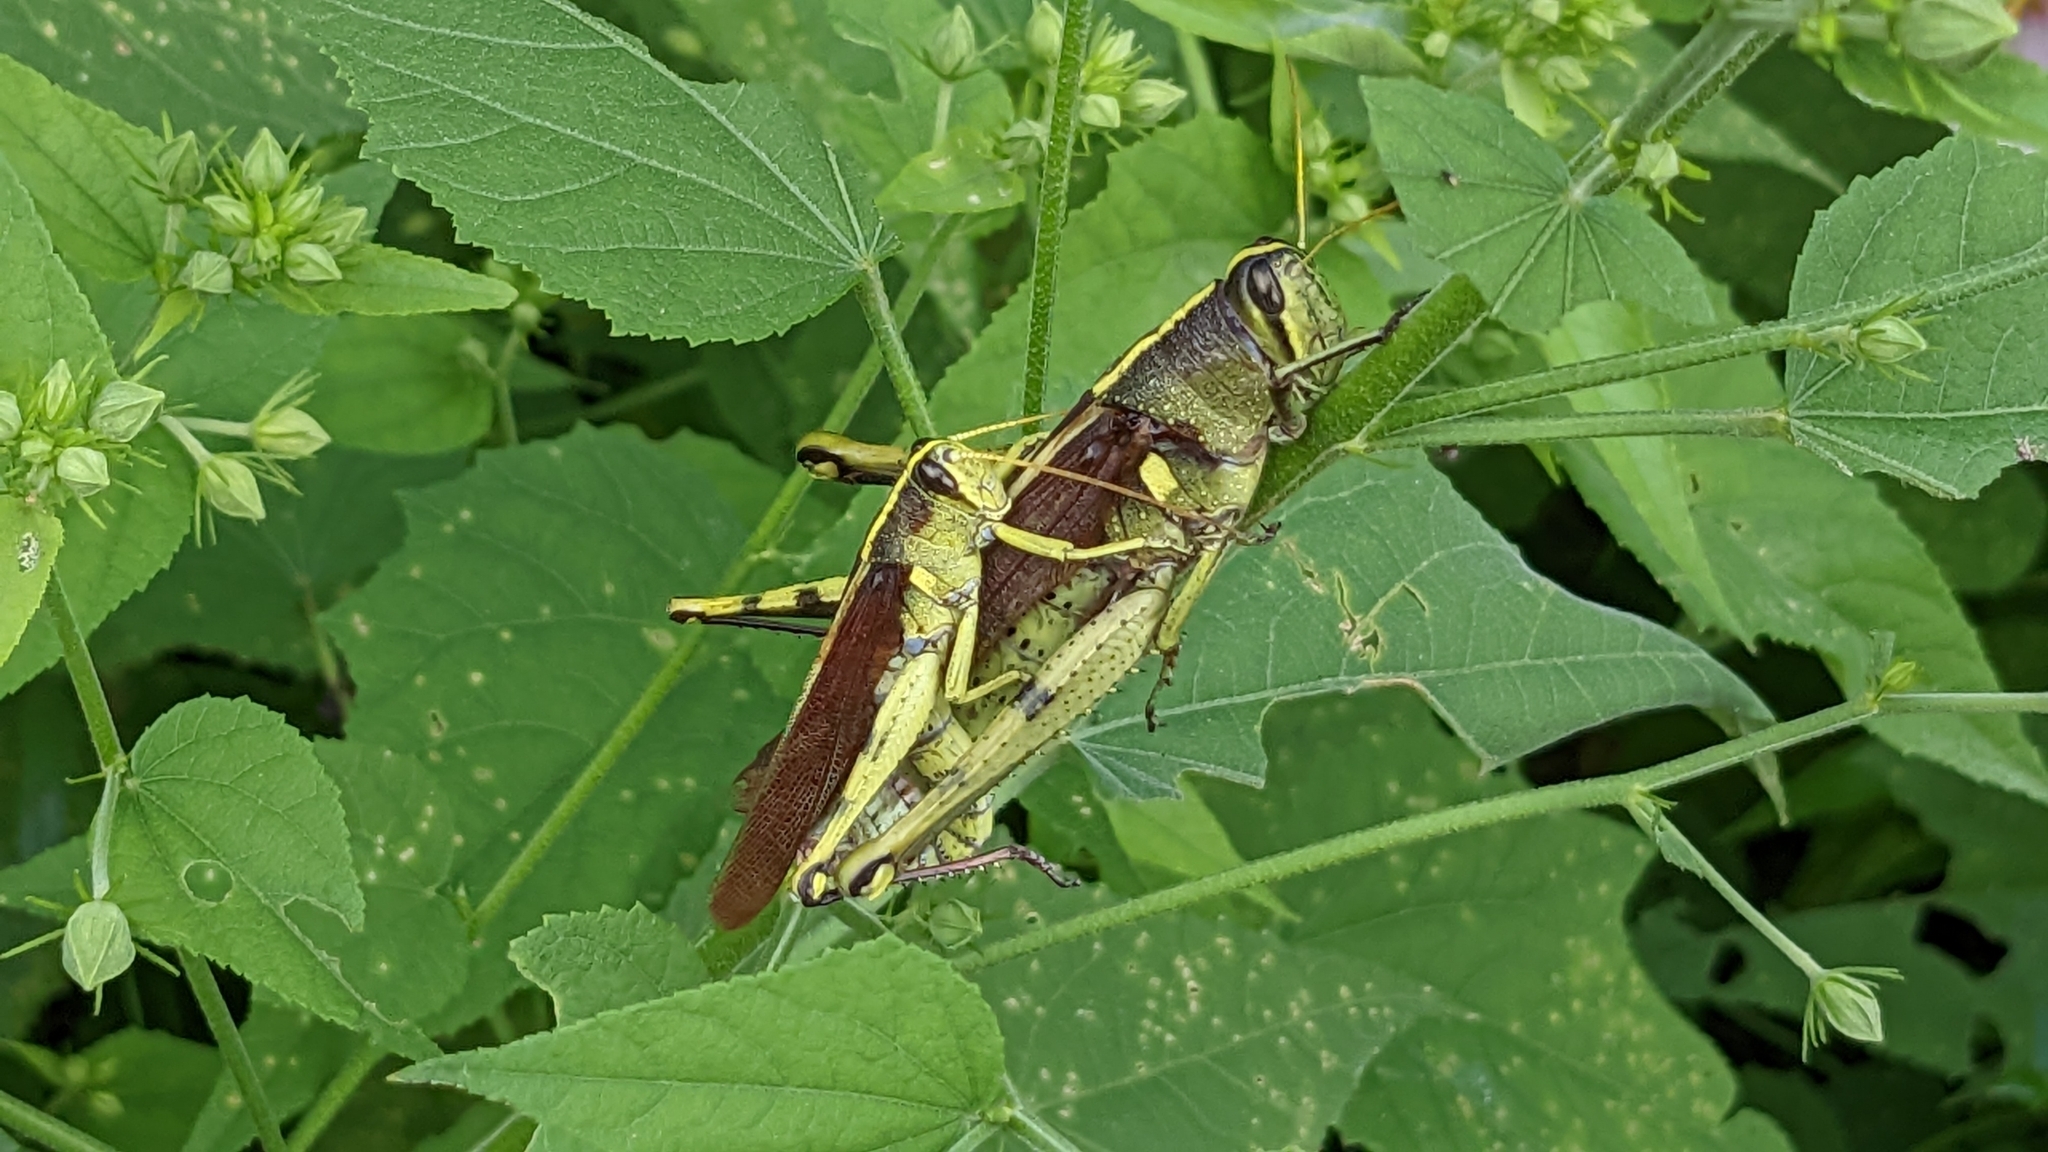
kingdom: Animalia
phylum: Arthropoda
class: Insecta
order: Orthoptera
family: Acrididae
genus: Schistocerca
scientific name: Schistocerca obscura
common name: Obscure bird grasshopper
